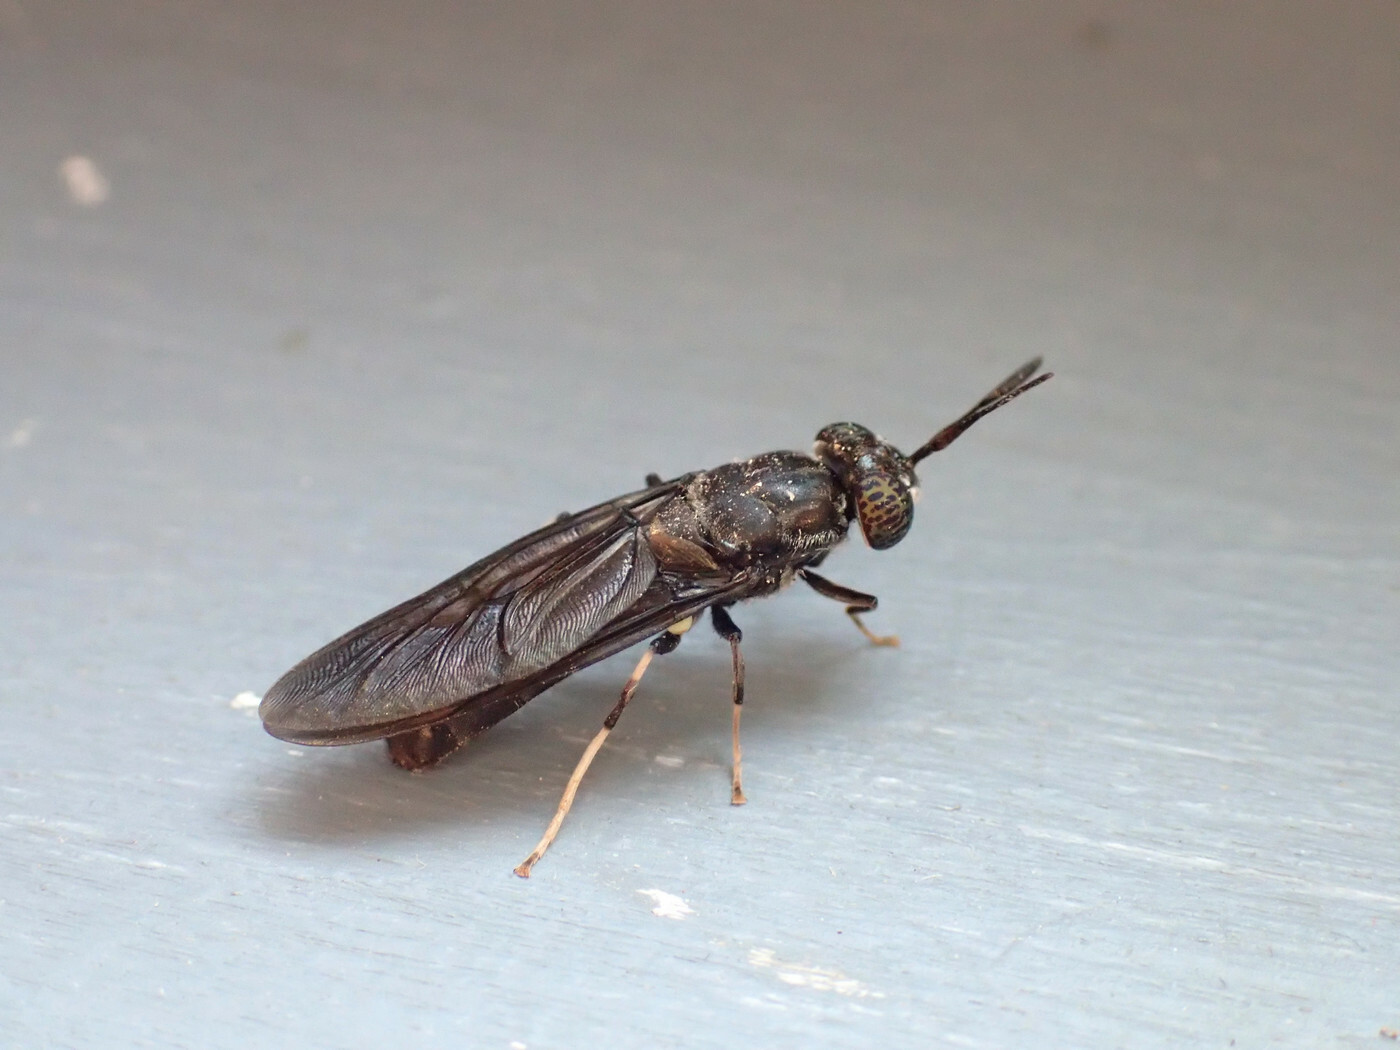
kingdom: Animalia
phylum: Arthropoda
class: Insecta
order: Diptera
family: Stratiomyidae
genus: Hermetia
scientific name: Hermetia illucens
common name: Black soldier fly
